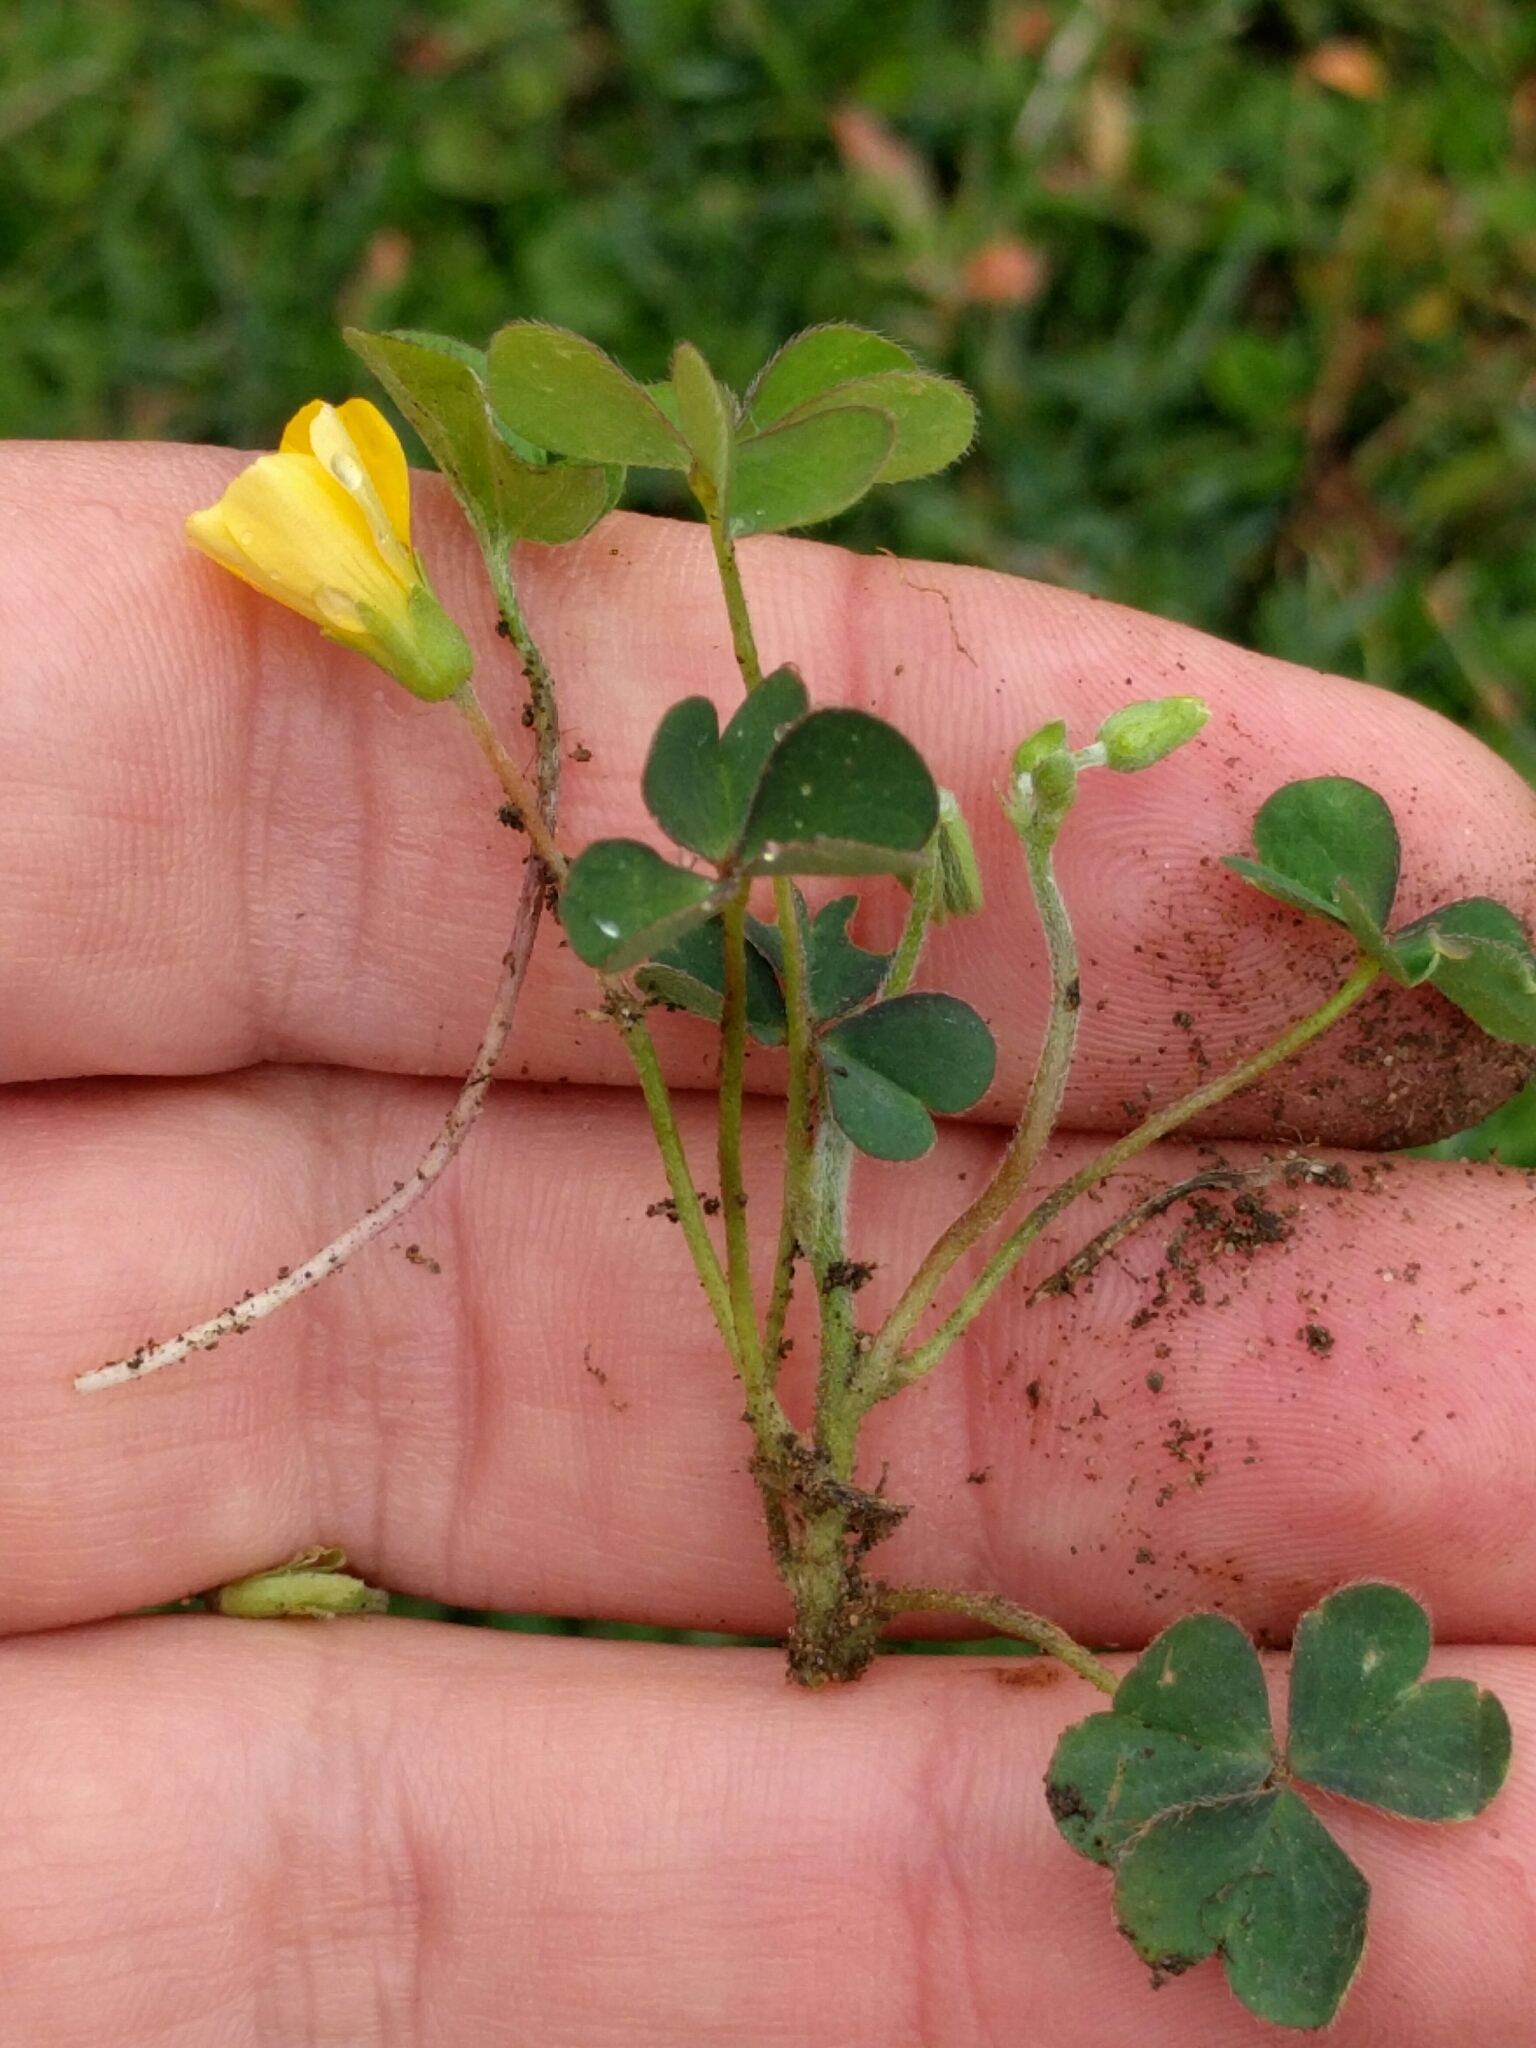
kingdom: Plantae
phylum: Tracheophyta
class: Magnoliopsida
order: Oxalidales
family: Oxalidaceae
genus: Oxalis
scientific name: Oxalis corniculata
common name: Procumbent yellow-sorrel
